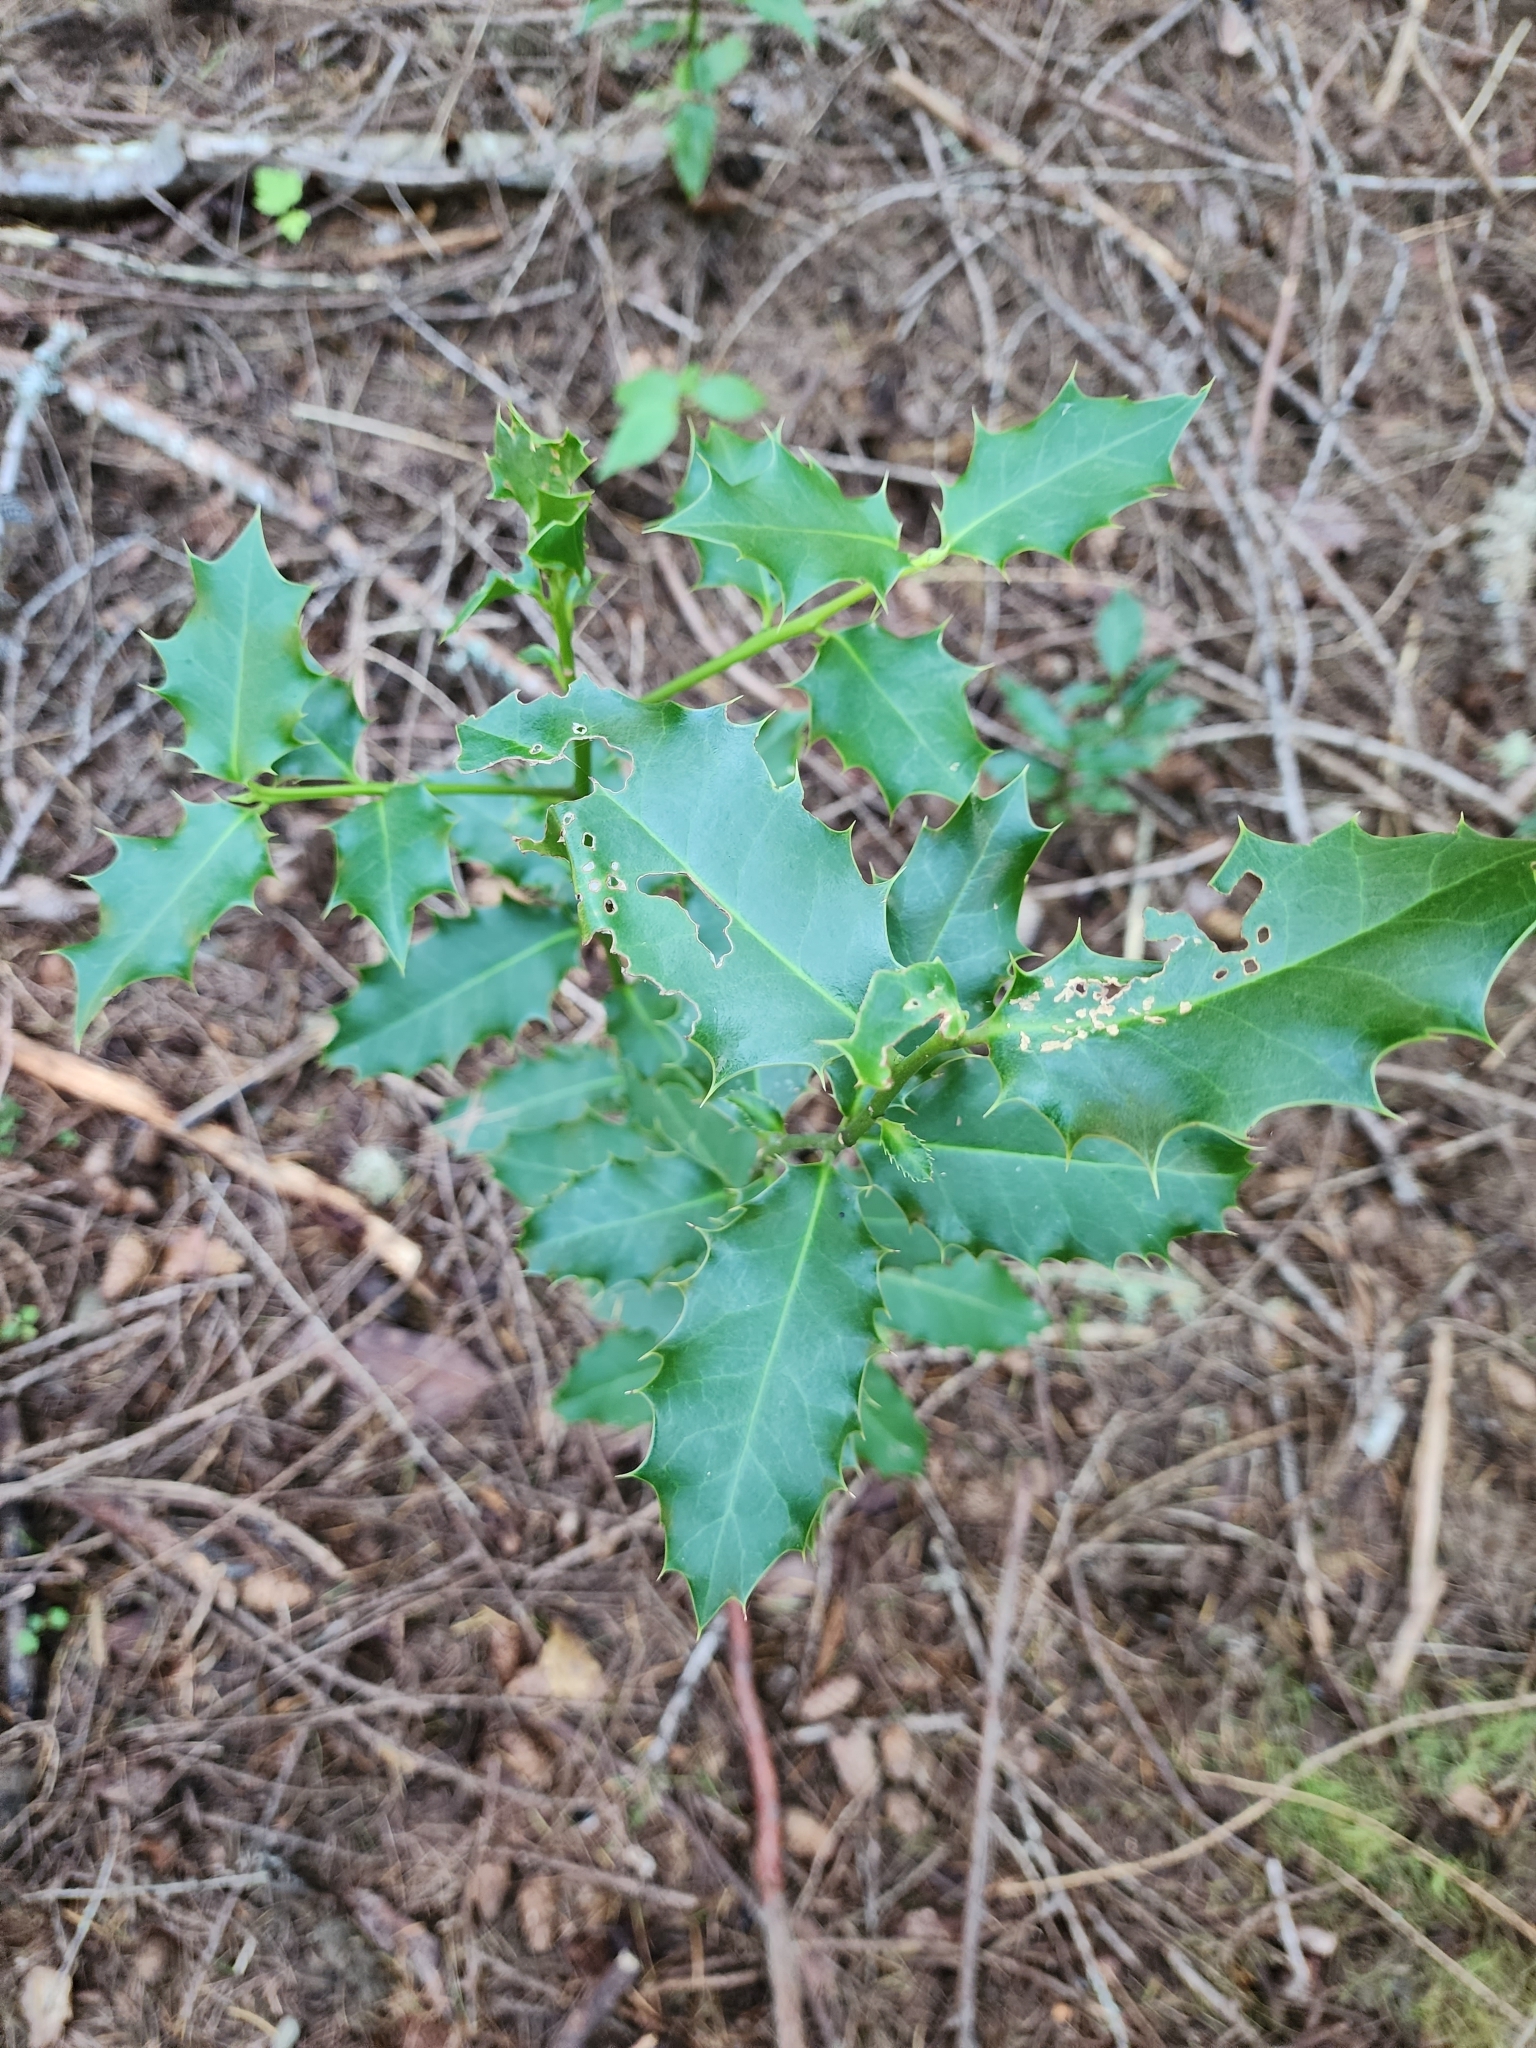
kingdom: Plantae
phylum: Tracheophyta
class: Magnoliopsida
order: Aquifoliales
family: Aquifoliaceae
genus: Ilex
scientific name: Ilex aquifolium
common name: English holly
